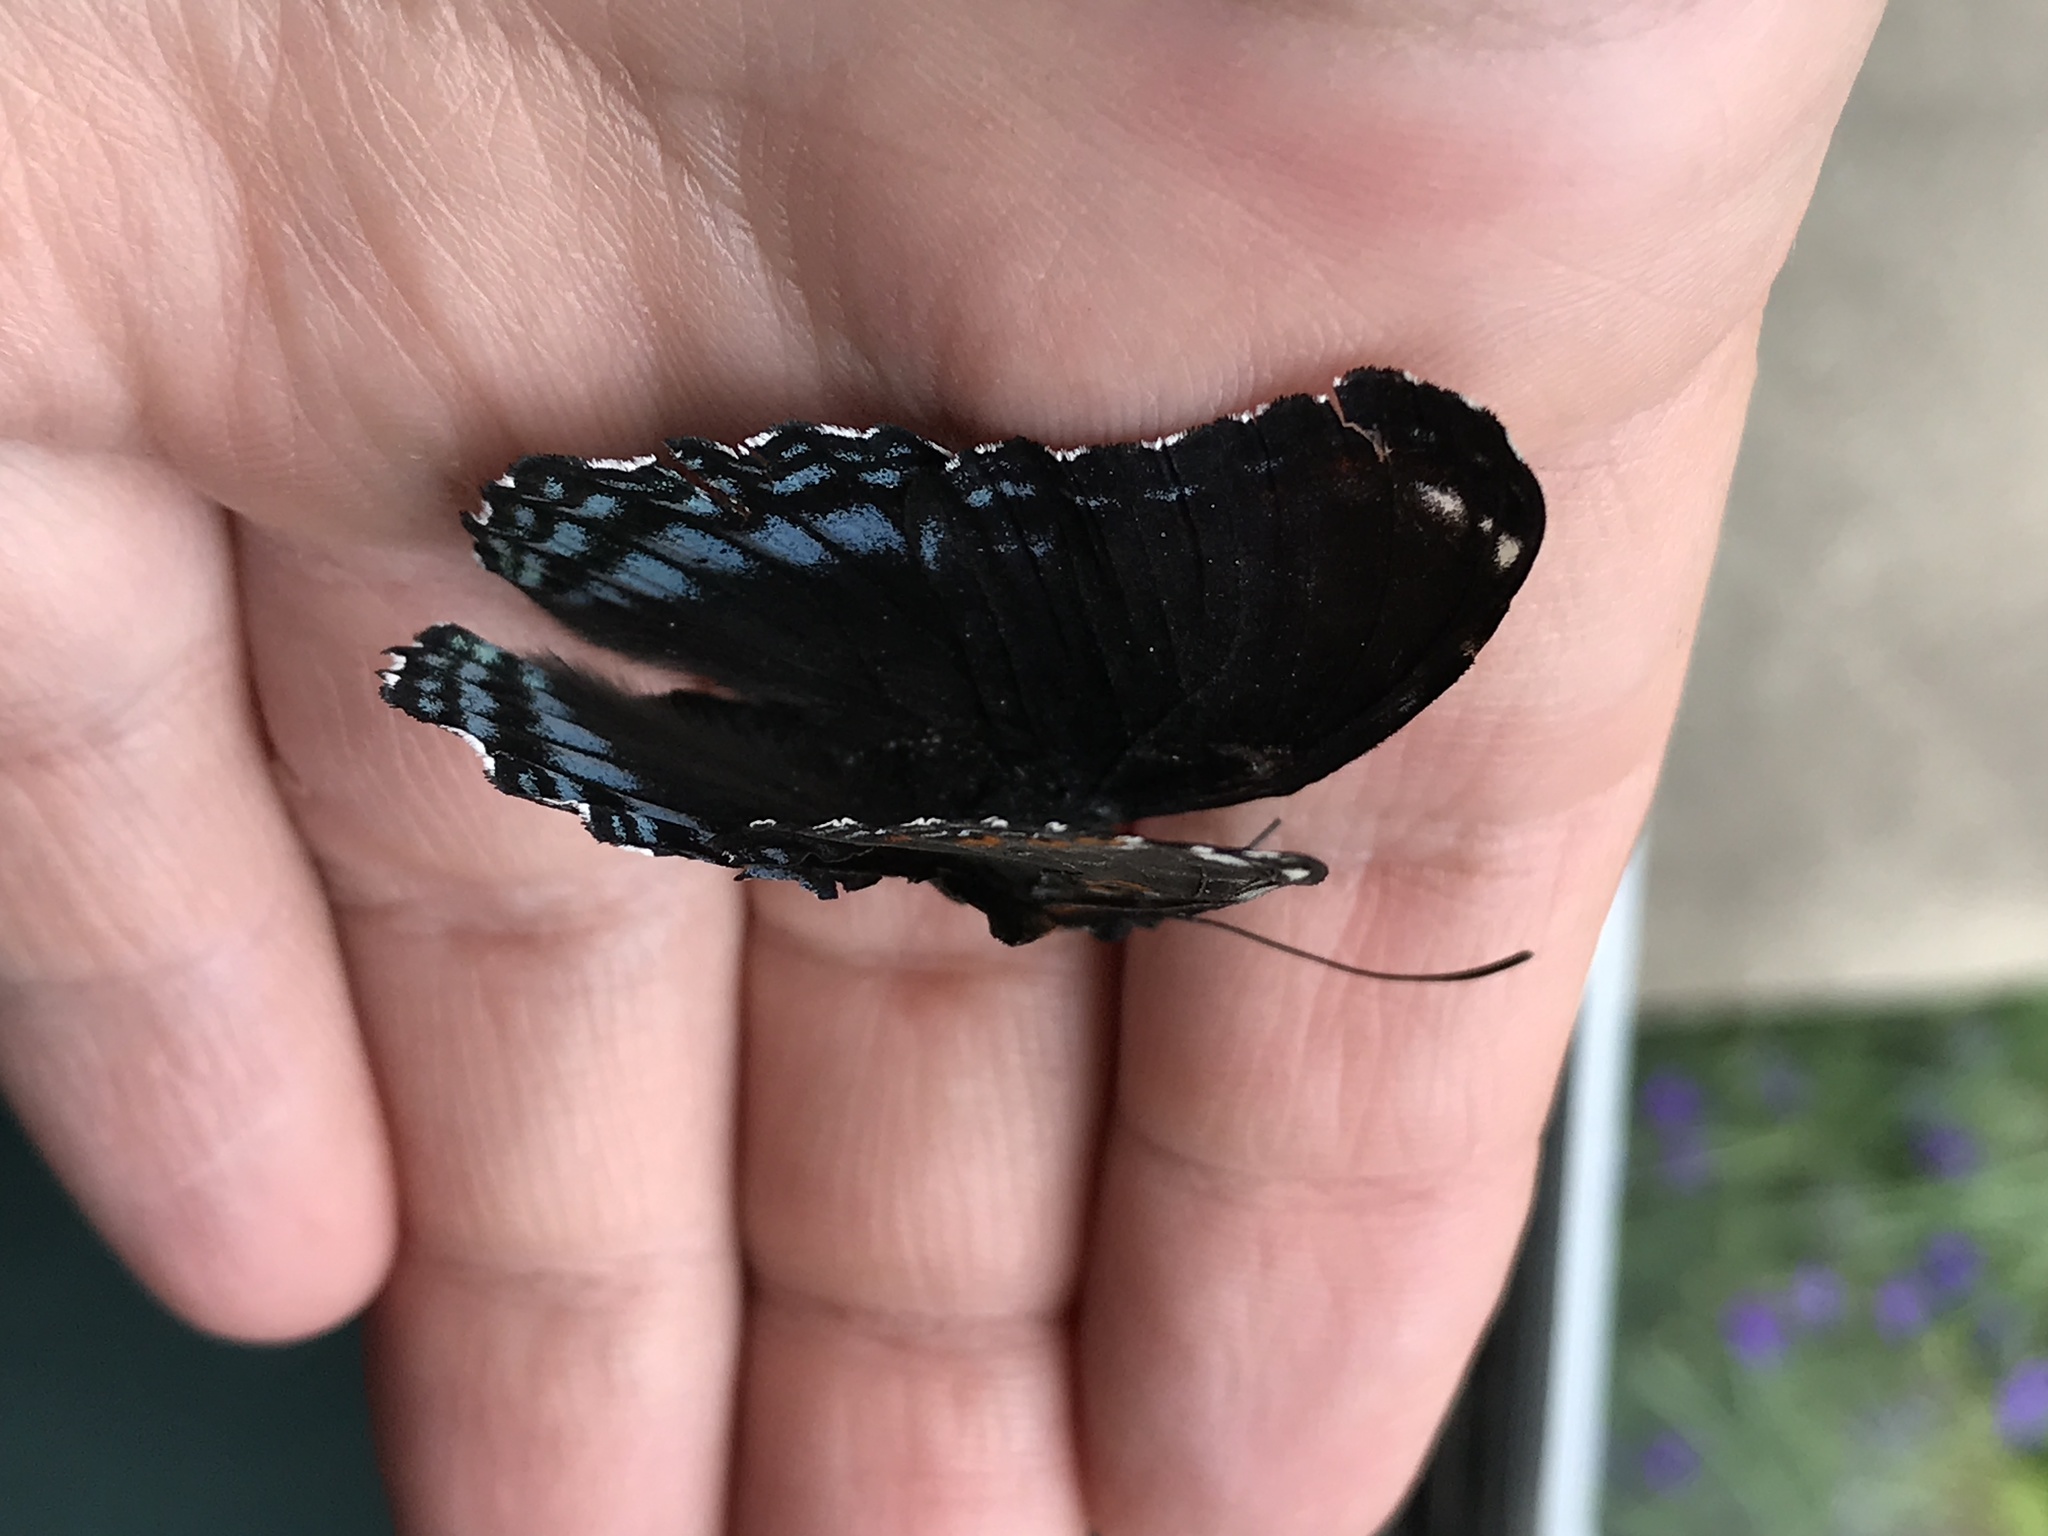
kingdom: Animalia
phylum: Arthropoda
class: Insecta
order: Lepidoptera
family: Nymphalidae
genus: Limenitis
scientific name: Limenitis arthemis
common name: Red-spotted admiral
